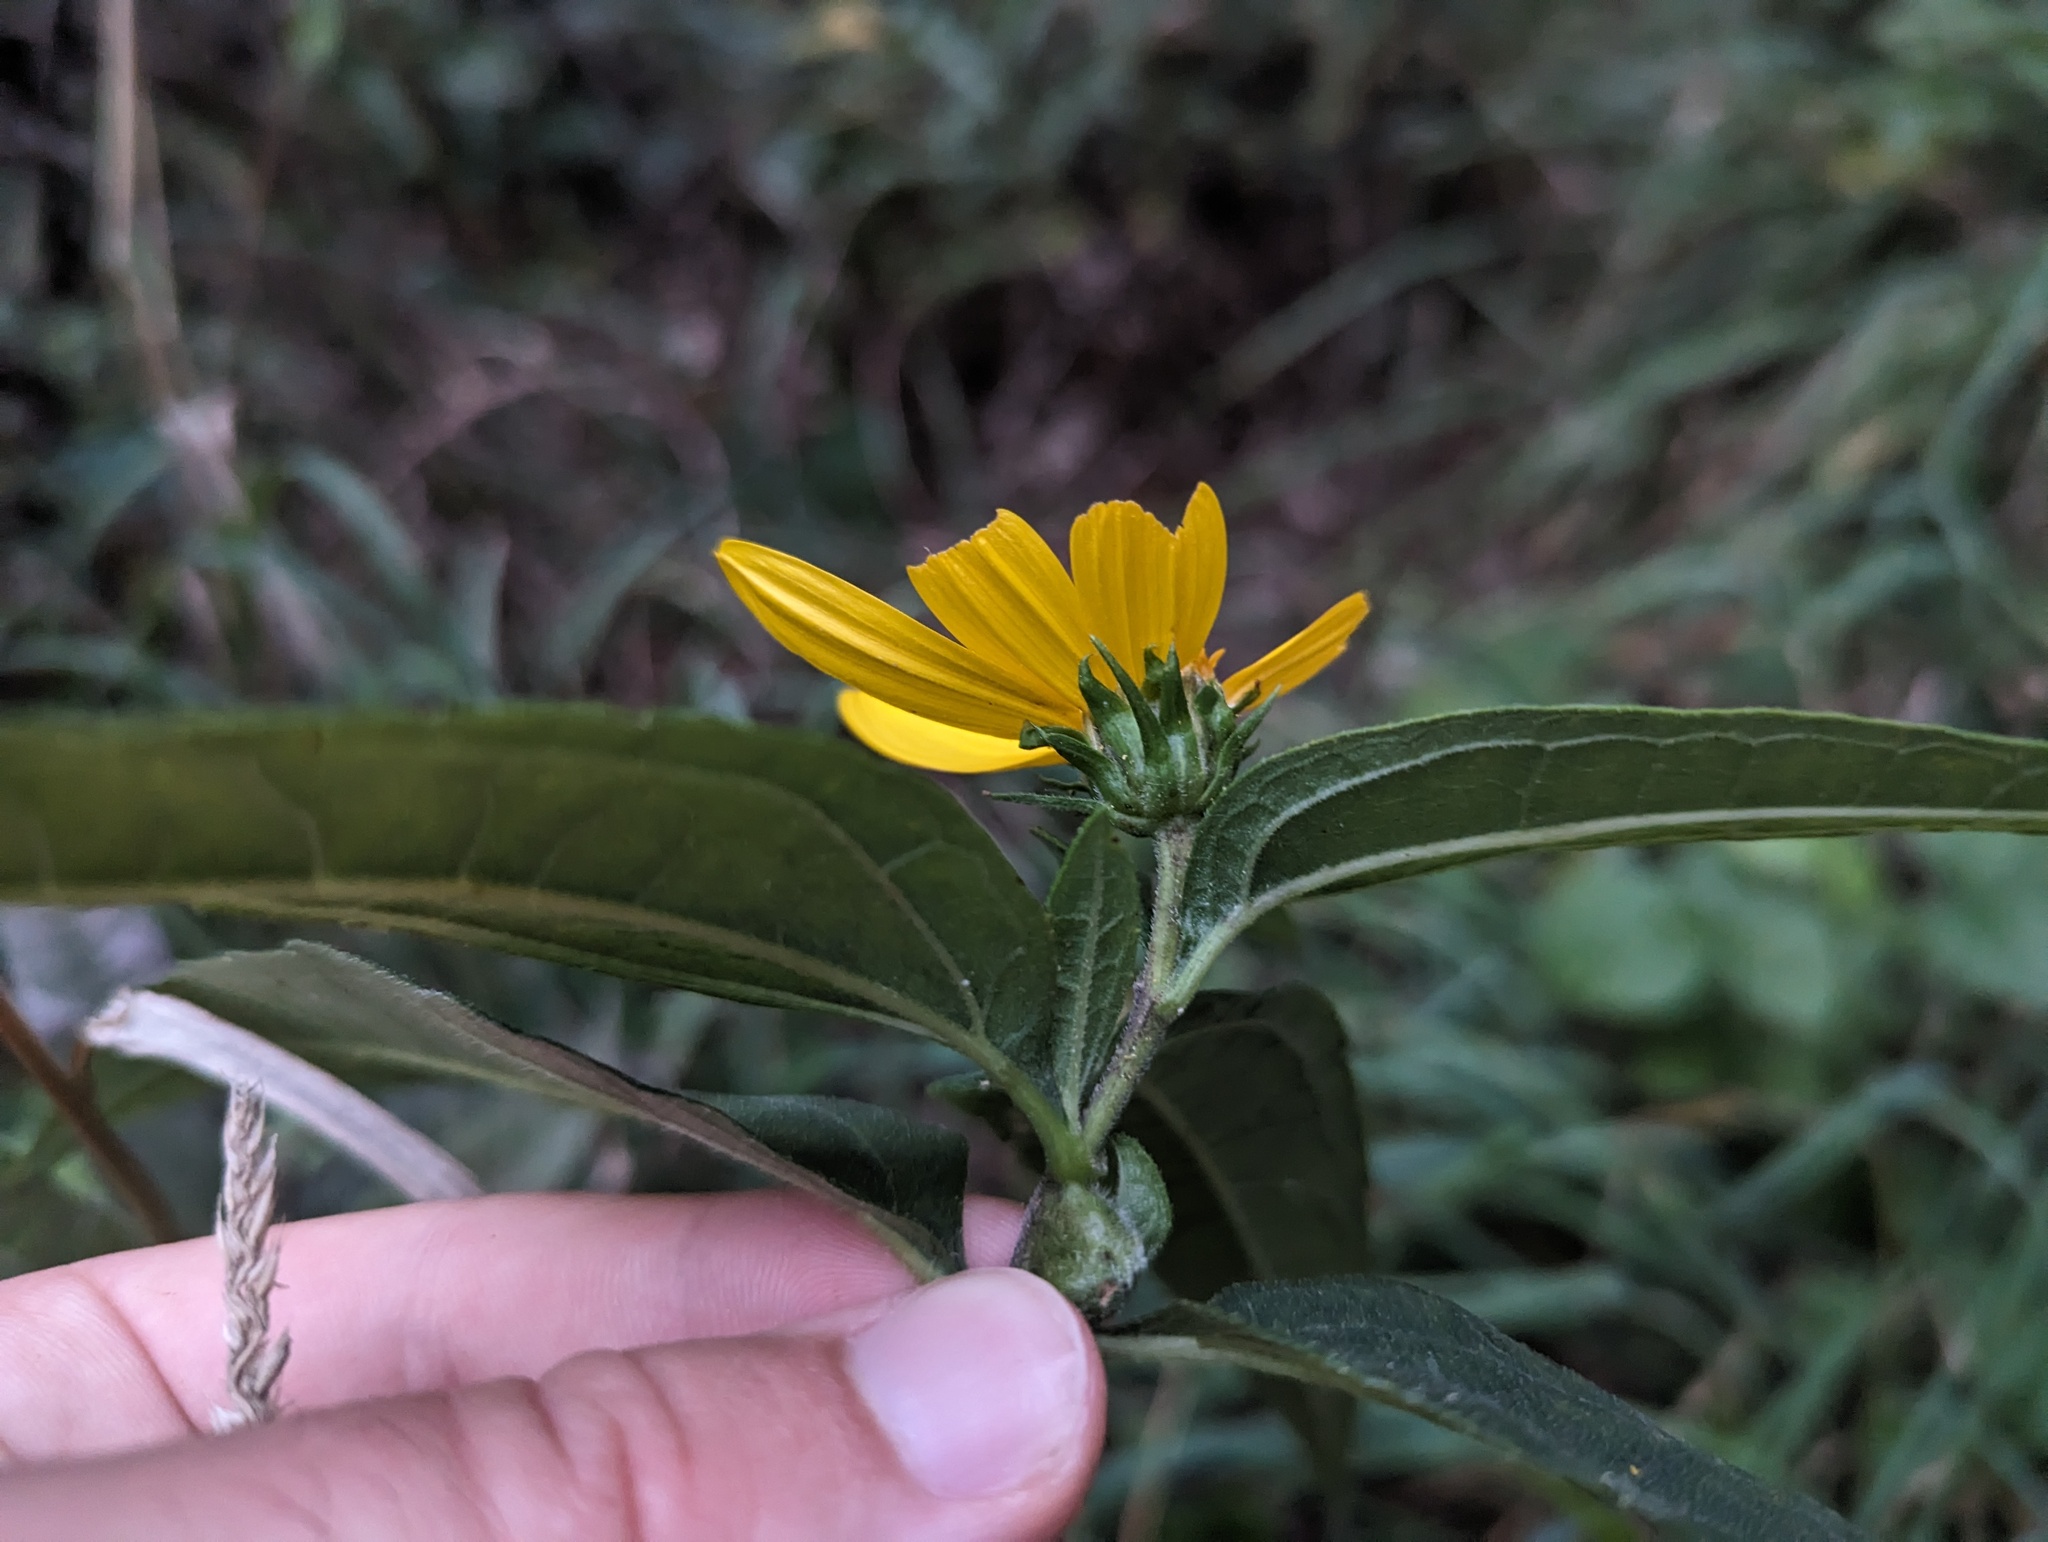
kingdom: Animalia
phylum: Arthropoda
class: Insecta
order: Diptera
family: Cecidomyiidae
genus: Asphondylia
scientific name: Asphondylia helianthiglobulus
